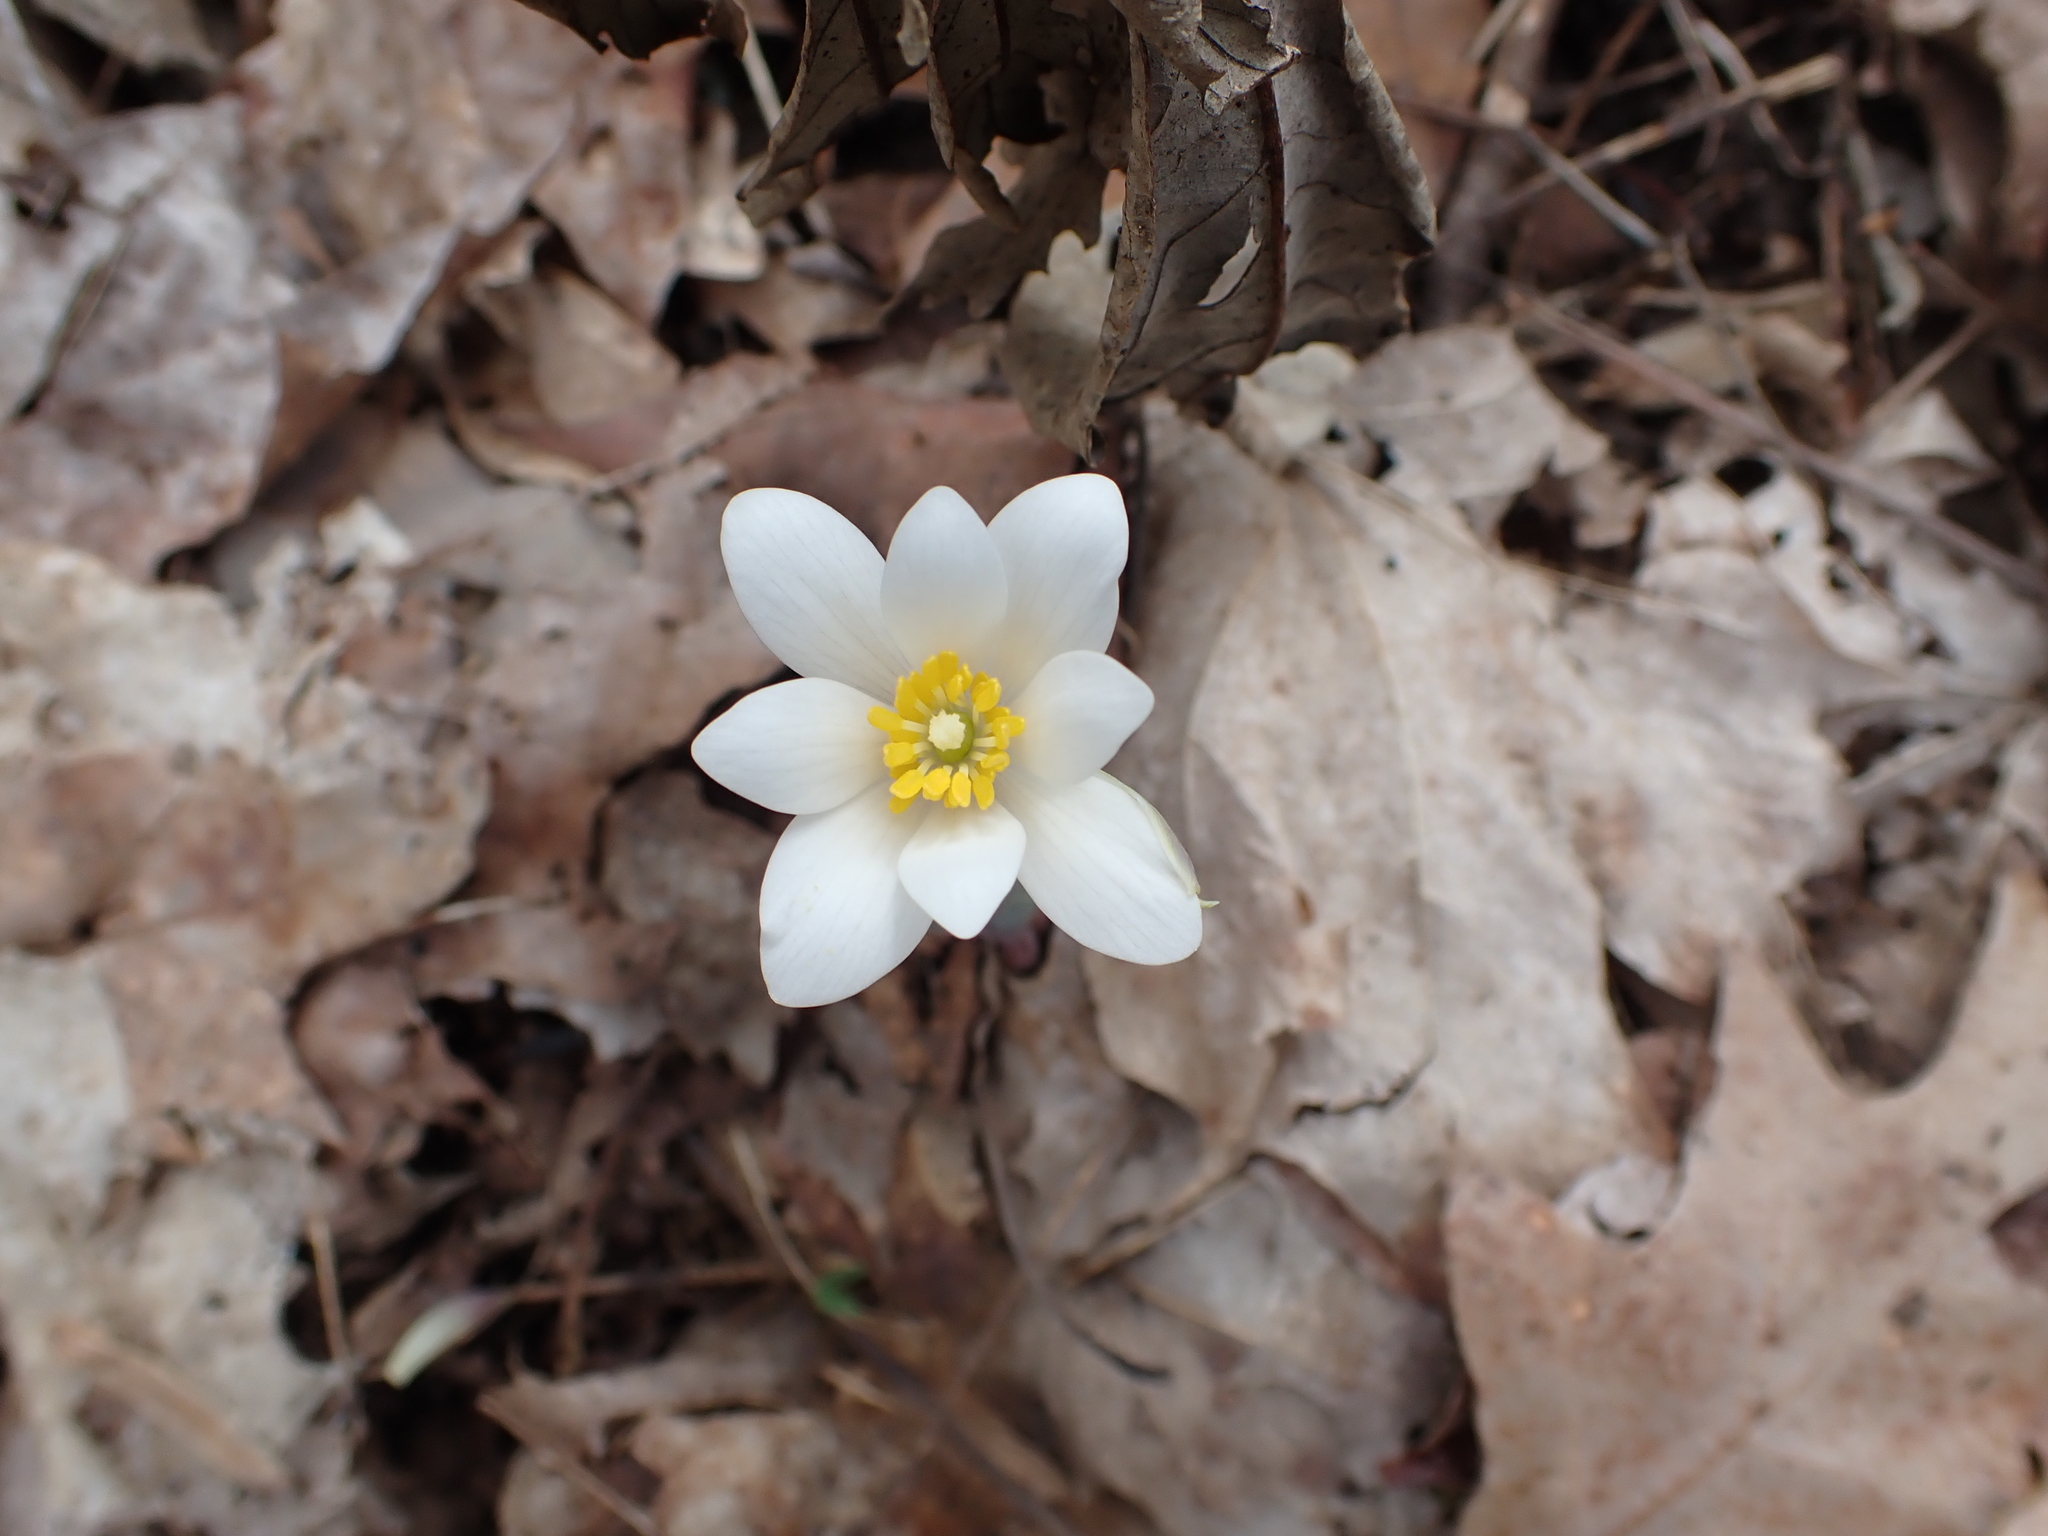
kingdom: Plantae
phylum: Tracheophyta
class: Magnoliopsida
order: Ranunculales
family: Papaveraceae
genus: Sanguinaria
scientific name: Sanguinaria canadensis
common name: Bloodroot
